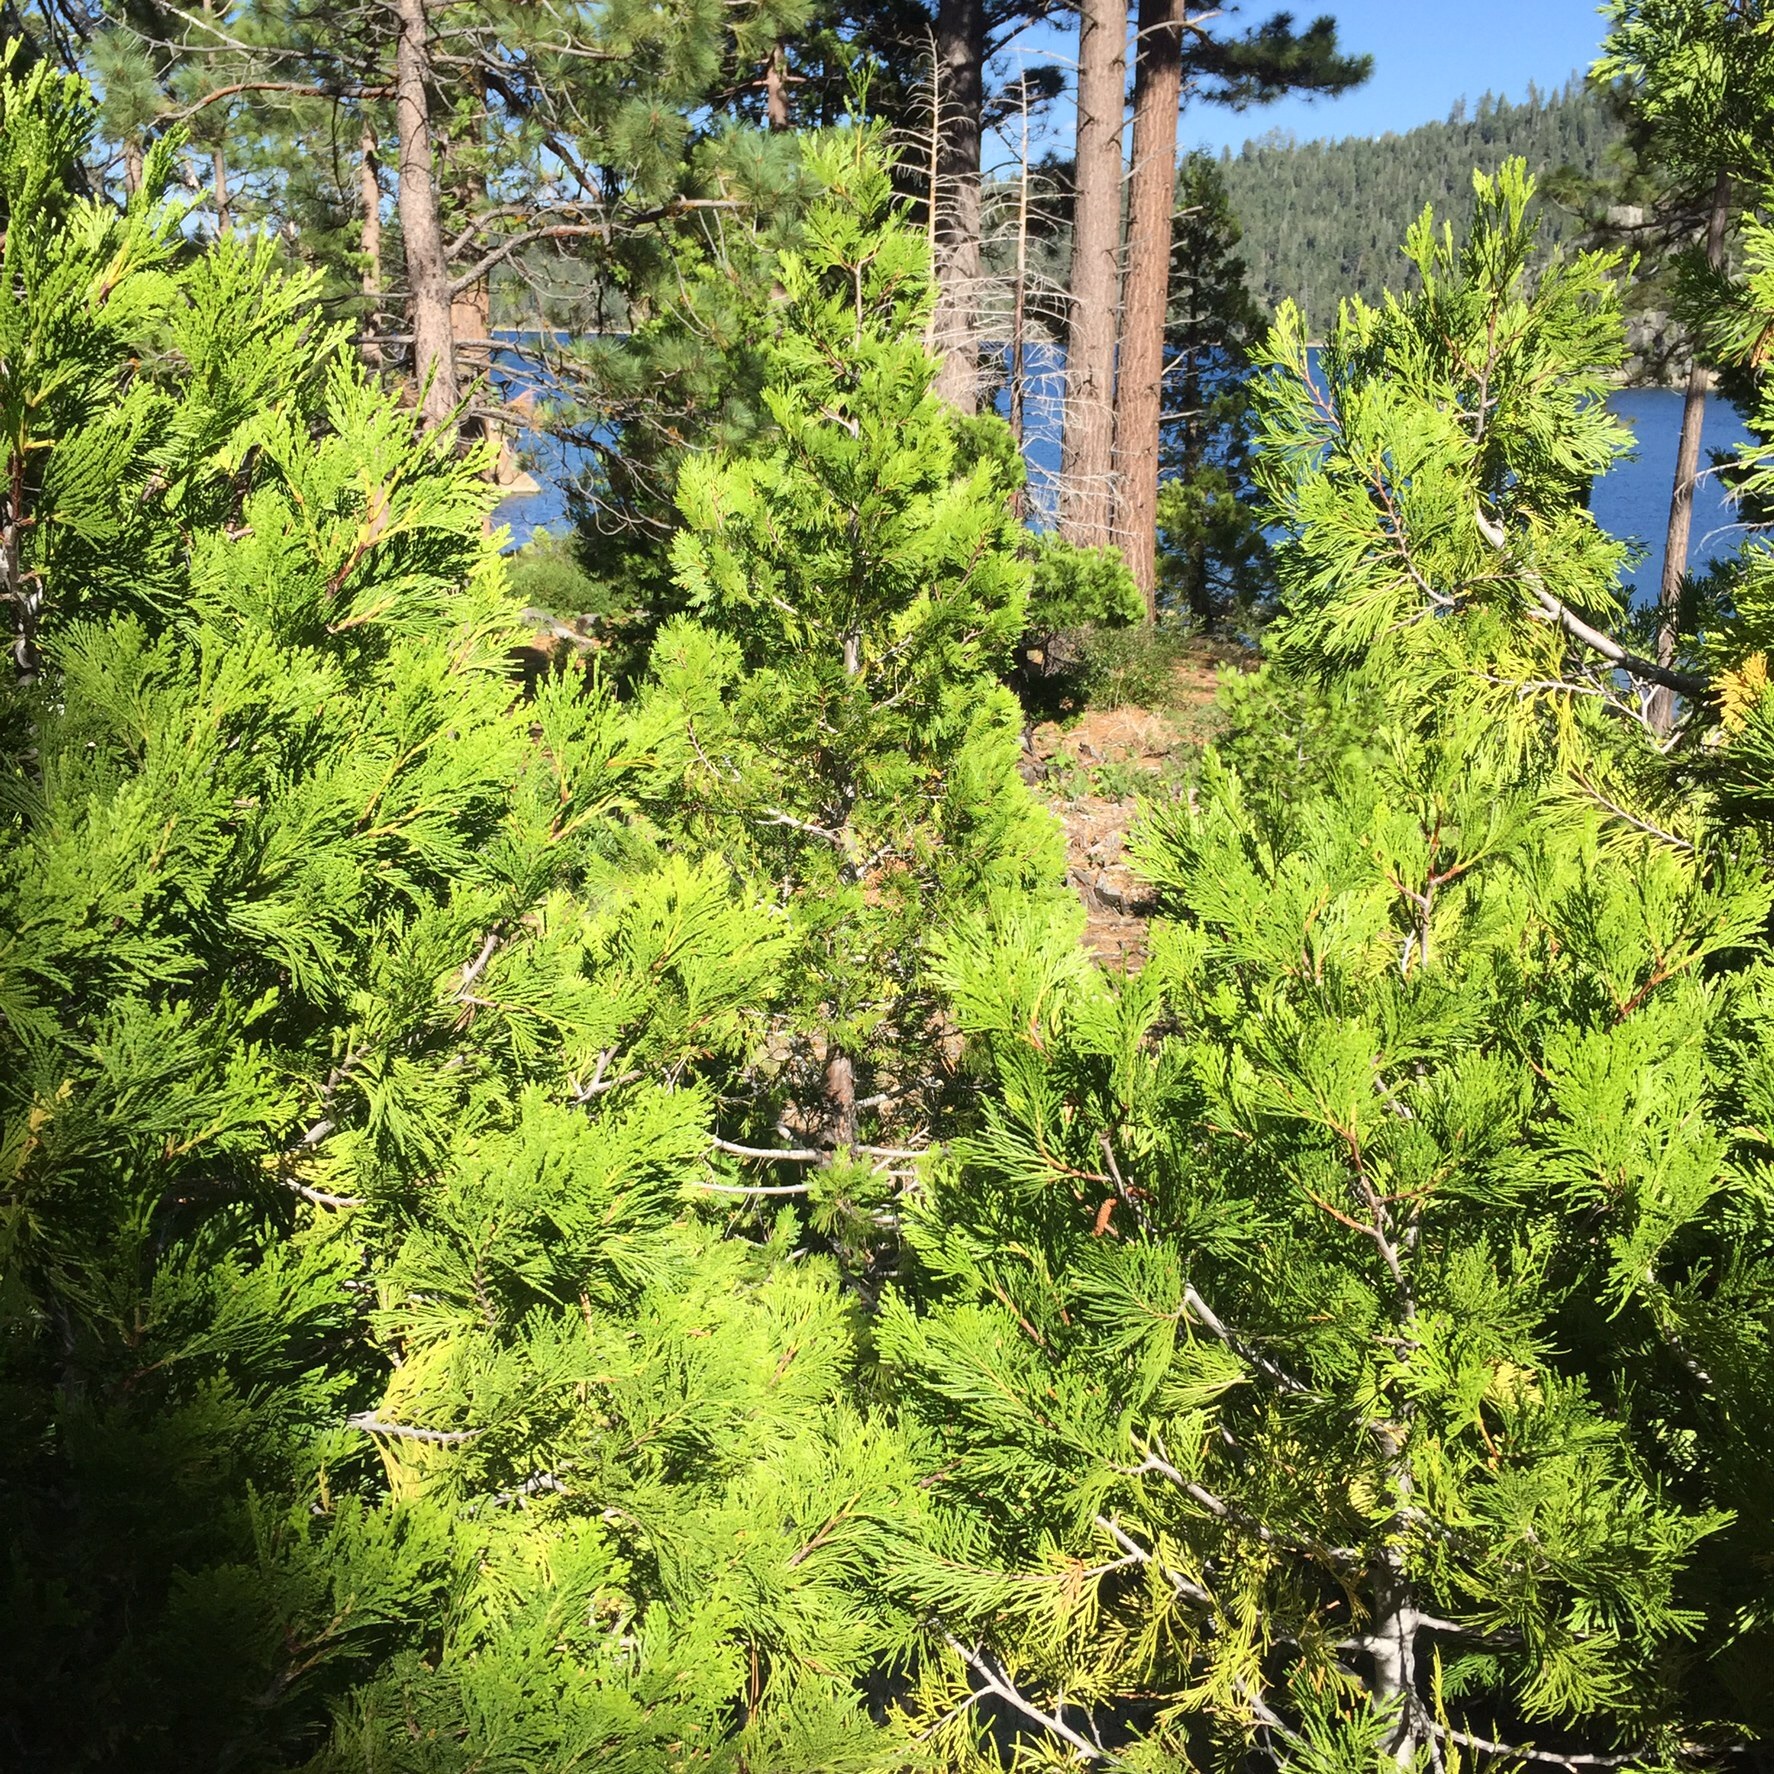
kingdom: Plantae
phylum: Tracheophyta
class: Pinopsida
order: Pinales
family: Cupressaceae
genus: Calocedrus
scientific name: Calocedrus decurrens
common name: Californian incense-cedar
